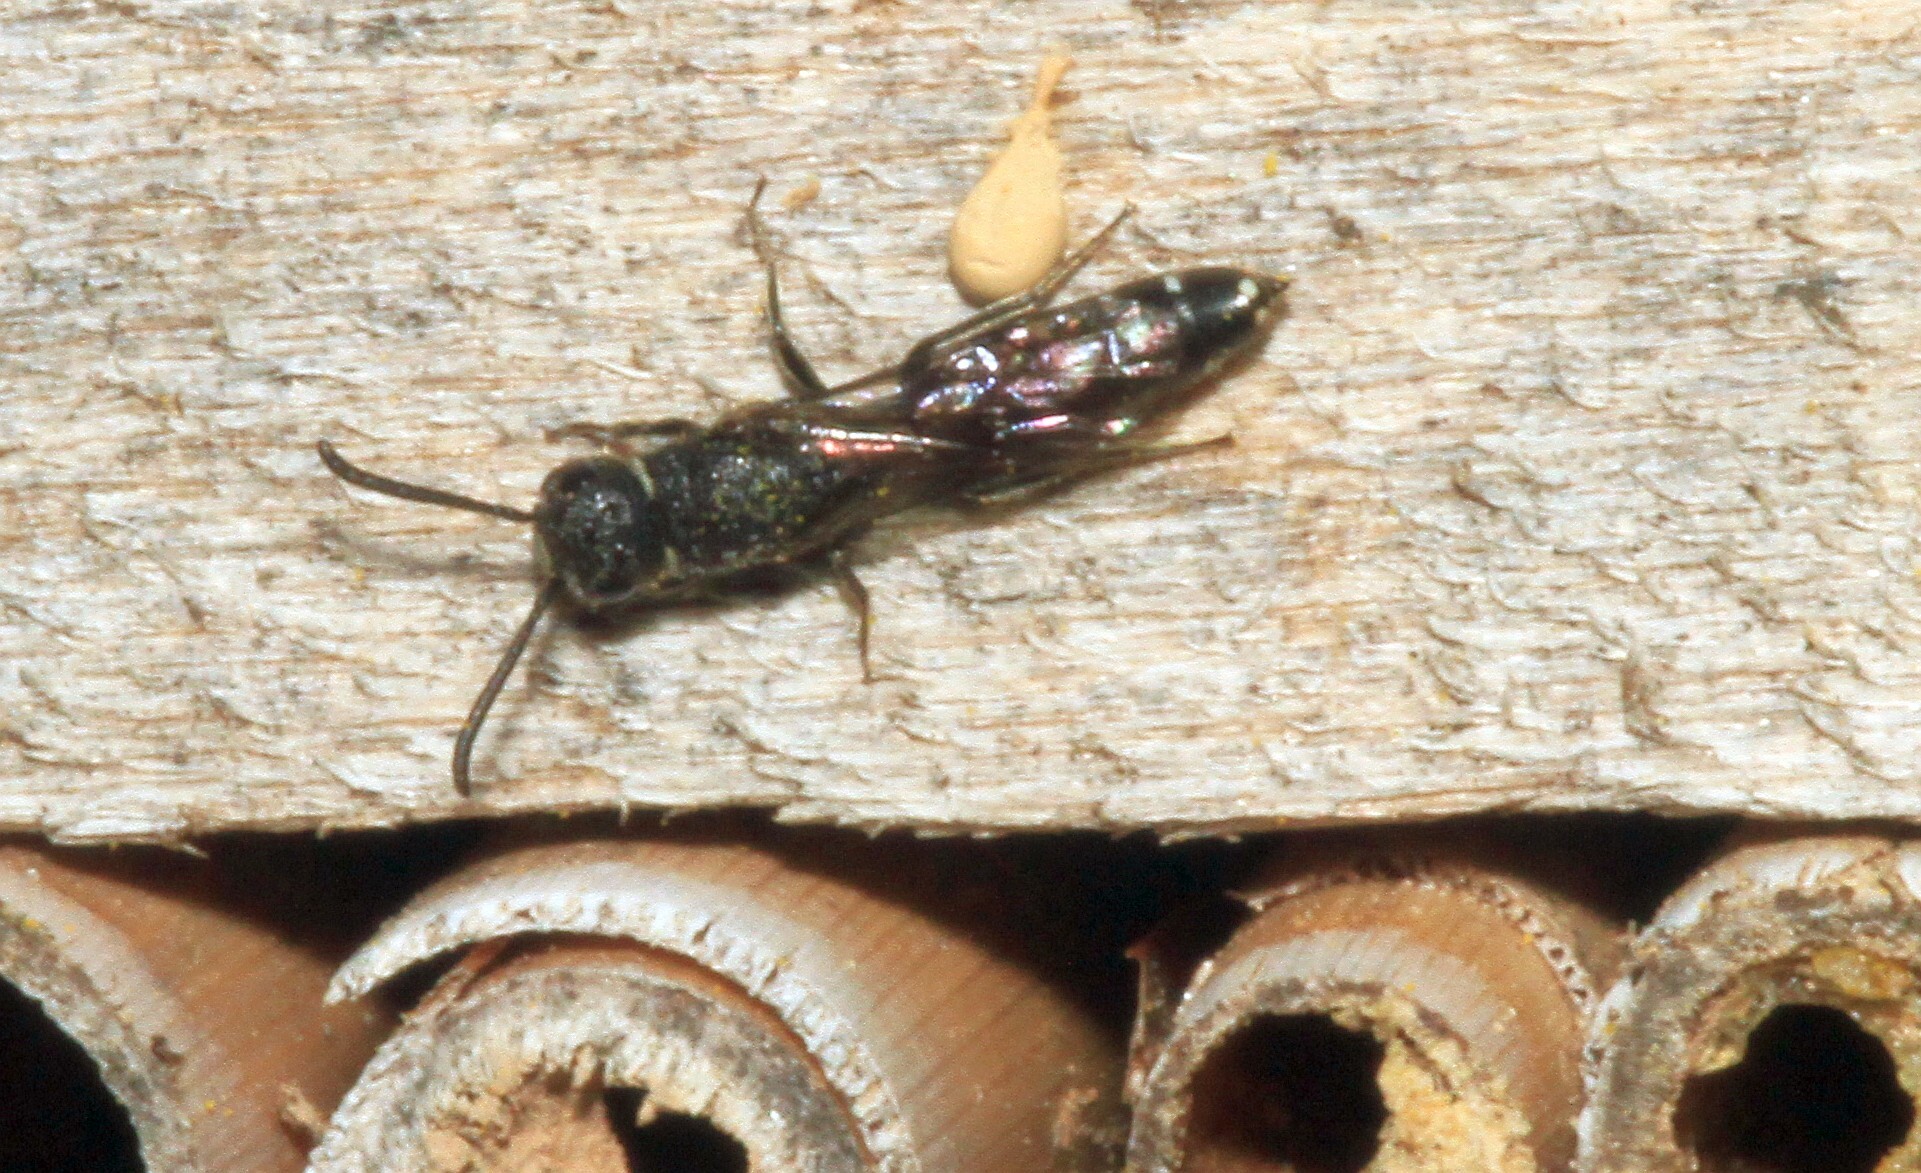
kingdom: Animalia
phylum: Arthropoda
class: Insecta
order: Hymenoptera
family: Sapygidae
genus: Sapygina
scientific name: Sapygina decemguttata
